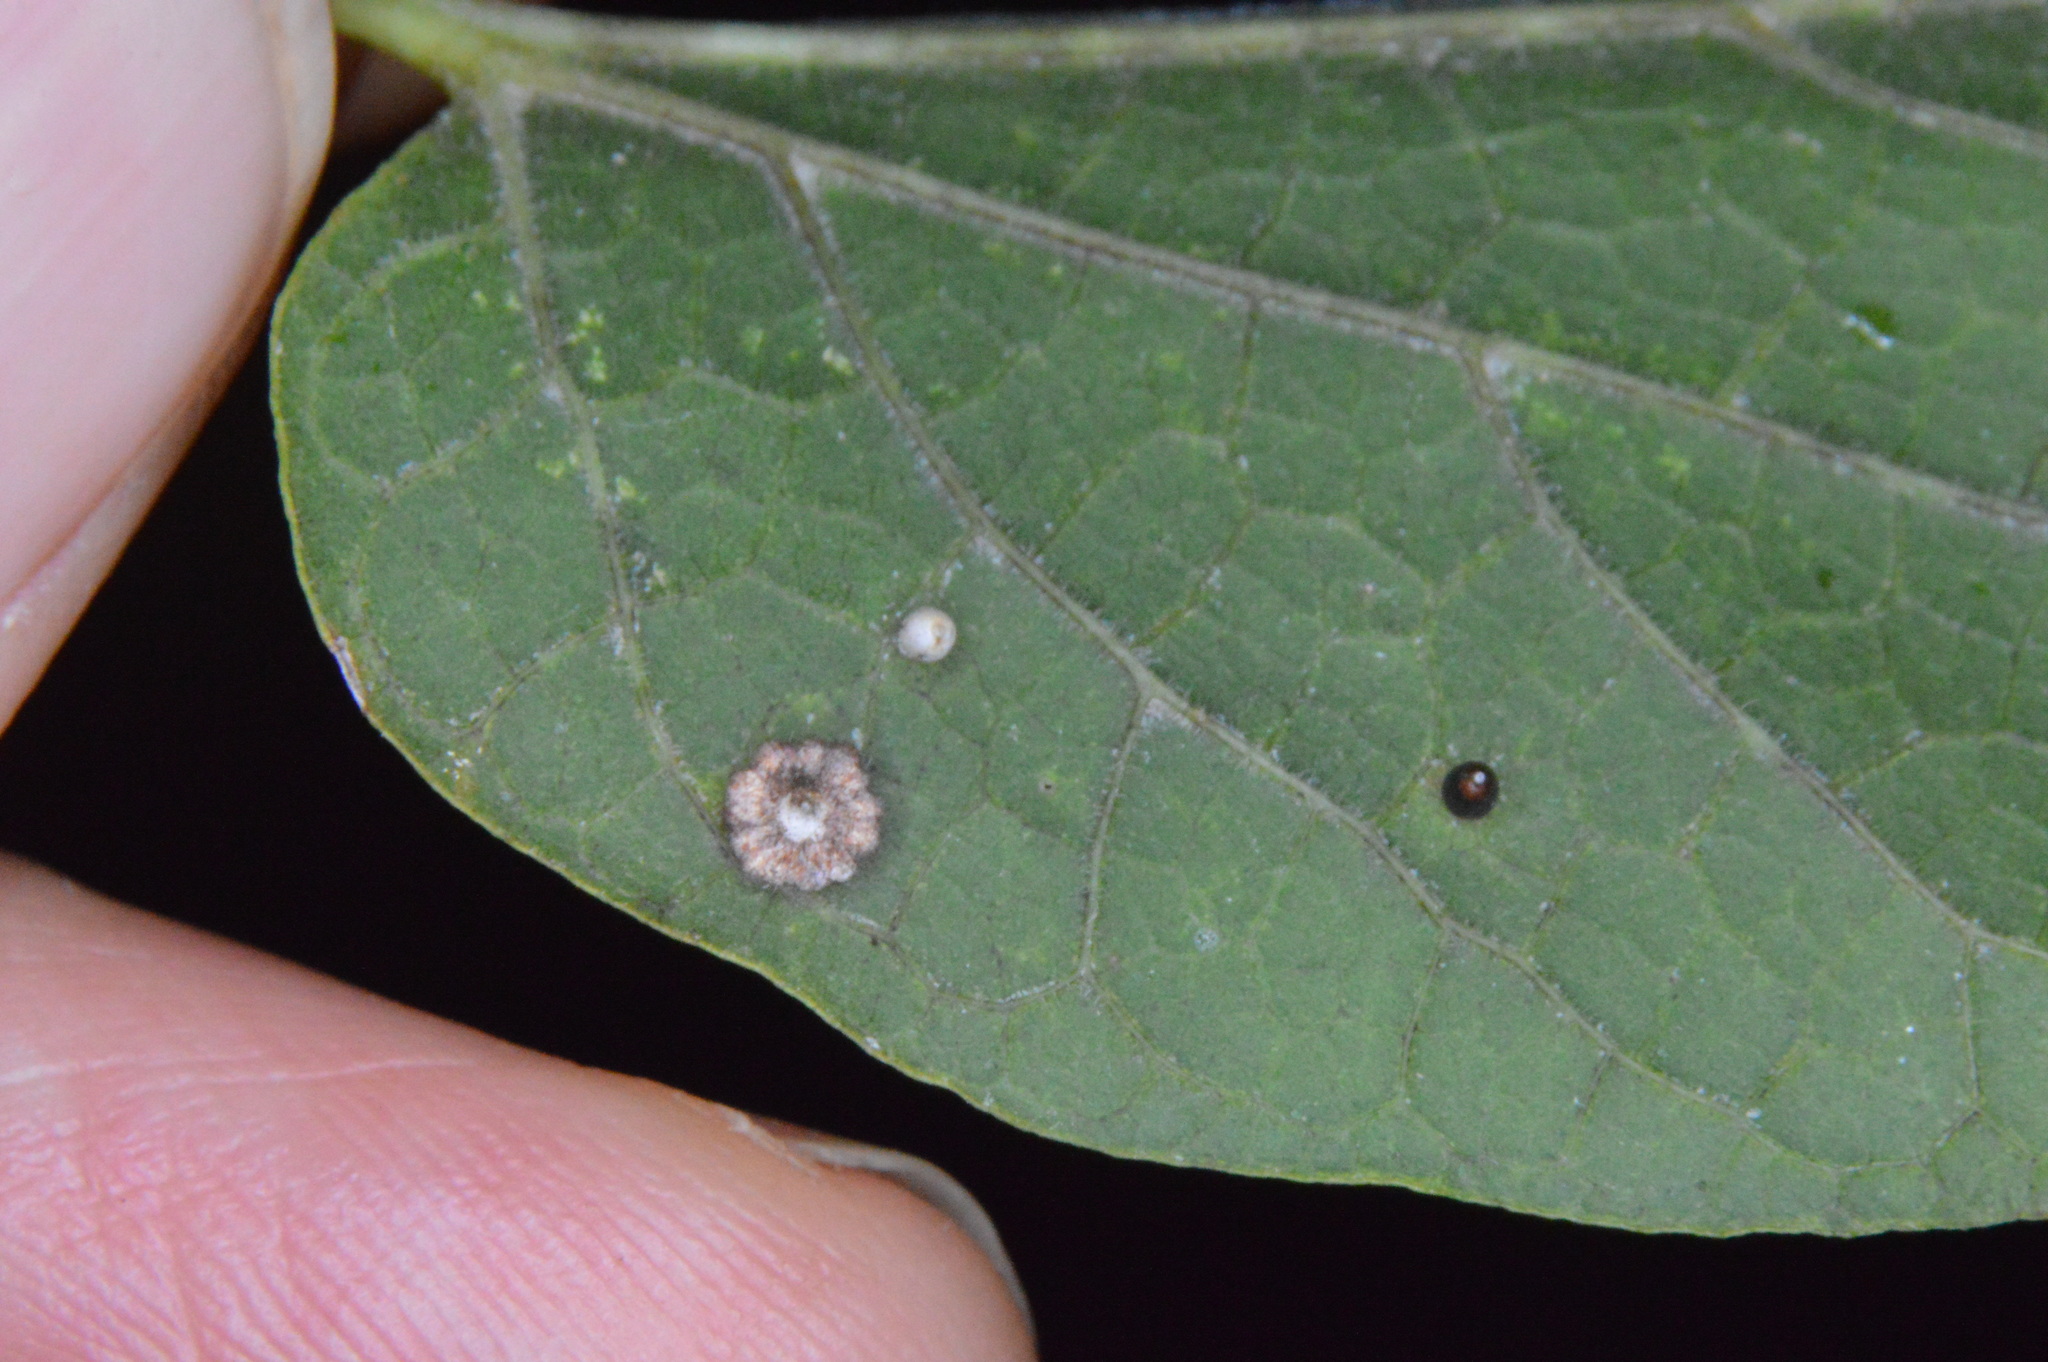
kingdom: Animalia
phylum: Arthropoda
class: Insecta
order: Diptera
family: Cecidomyiidae
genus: Celticecis
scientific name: Celticecis capsularis
